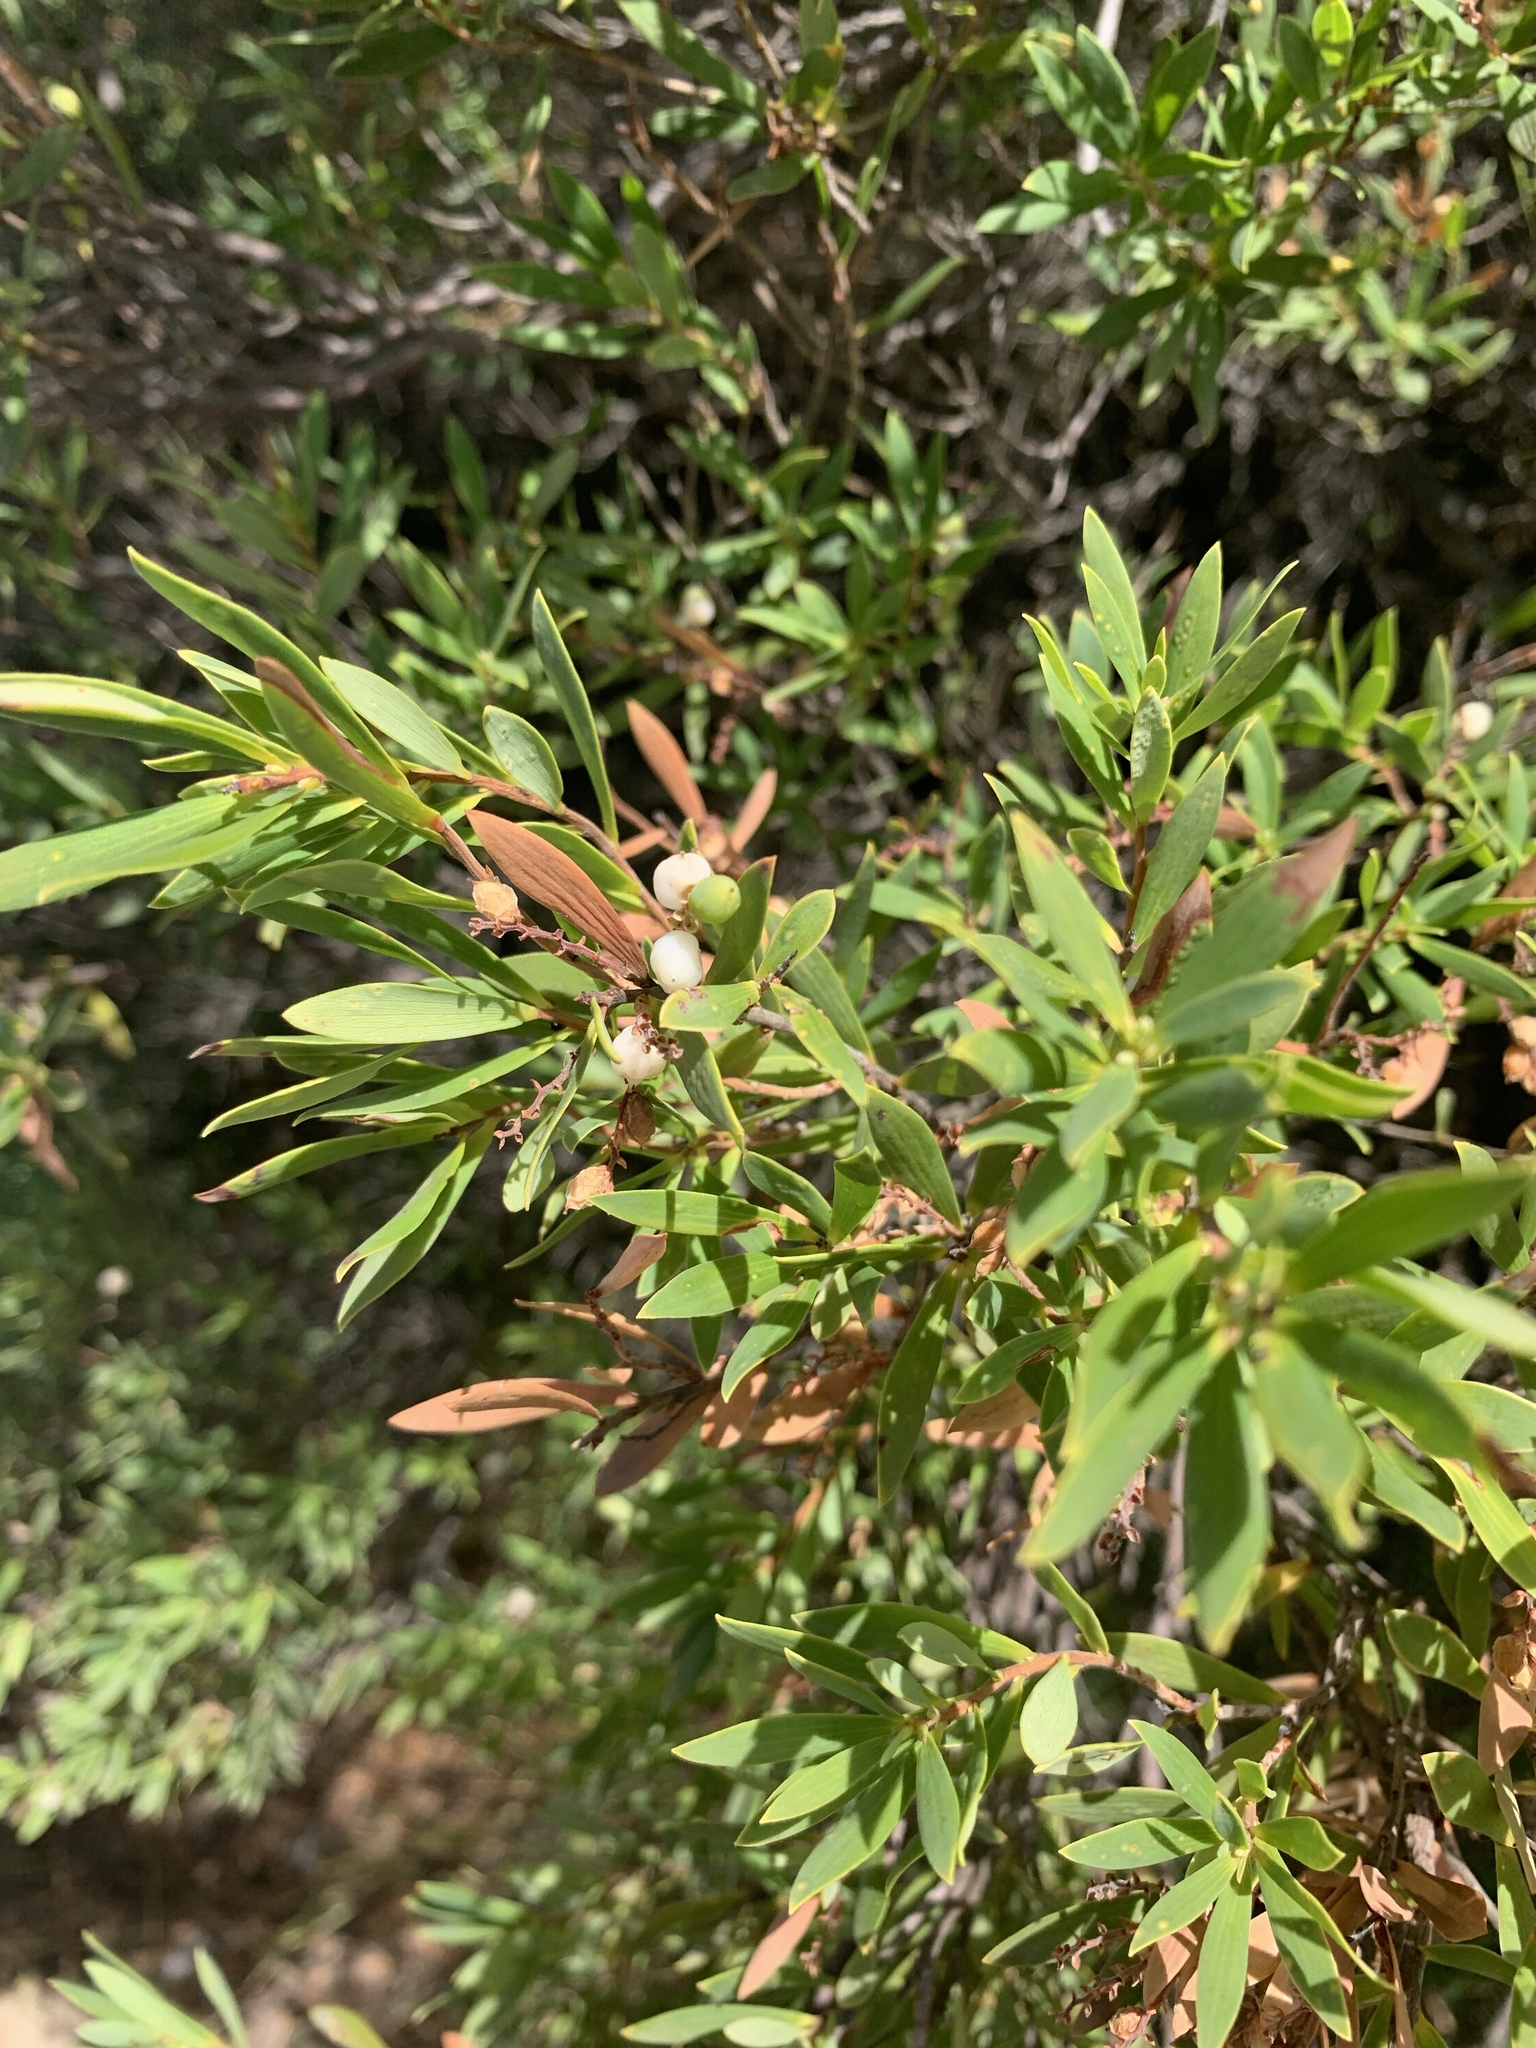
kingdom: Plantae
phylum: Tracheophyta
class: Magnoliopsida
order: Ericales
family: Ericaceae
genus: Leptecophylla
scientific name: Leptecophylla parvifolia
